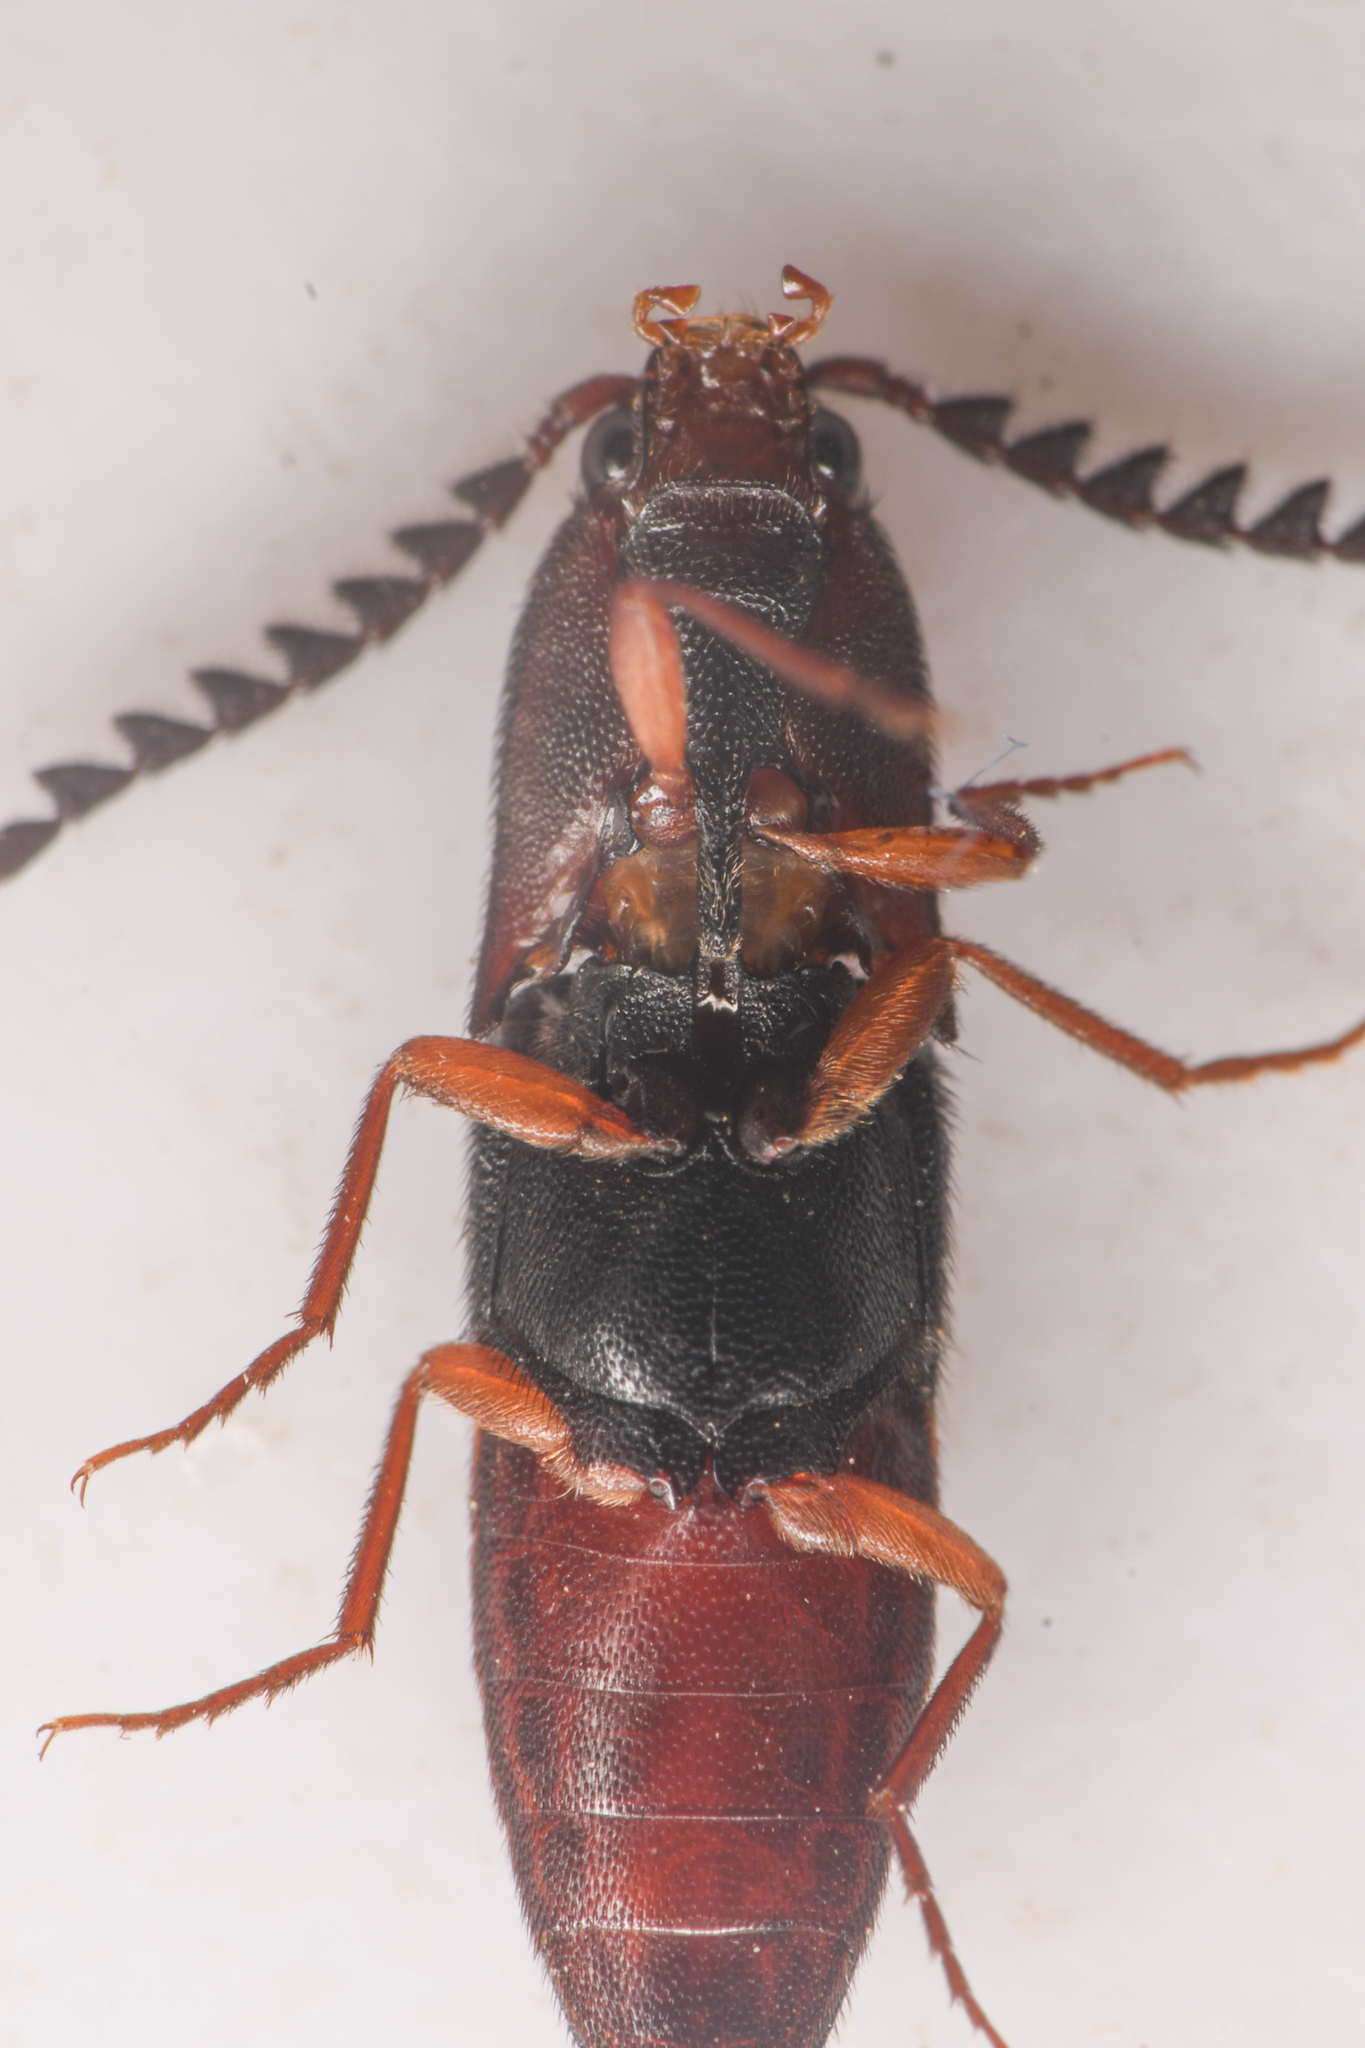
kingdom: Animalia
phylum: Arthropoda
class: Insecta
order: Coleoptera
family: Elateridae
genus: Megapenthes
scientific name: Megapenthes
